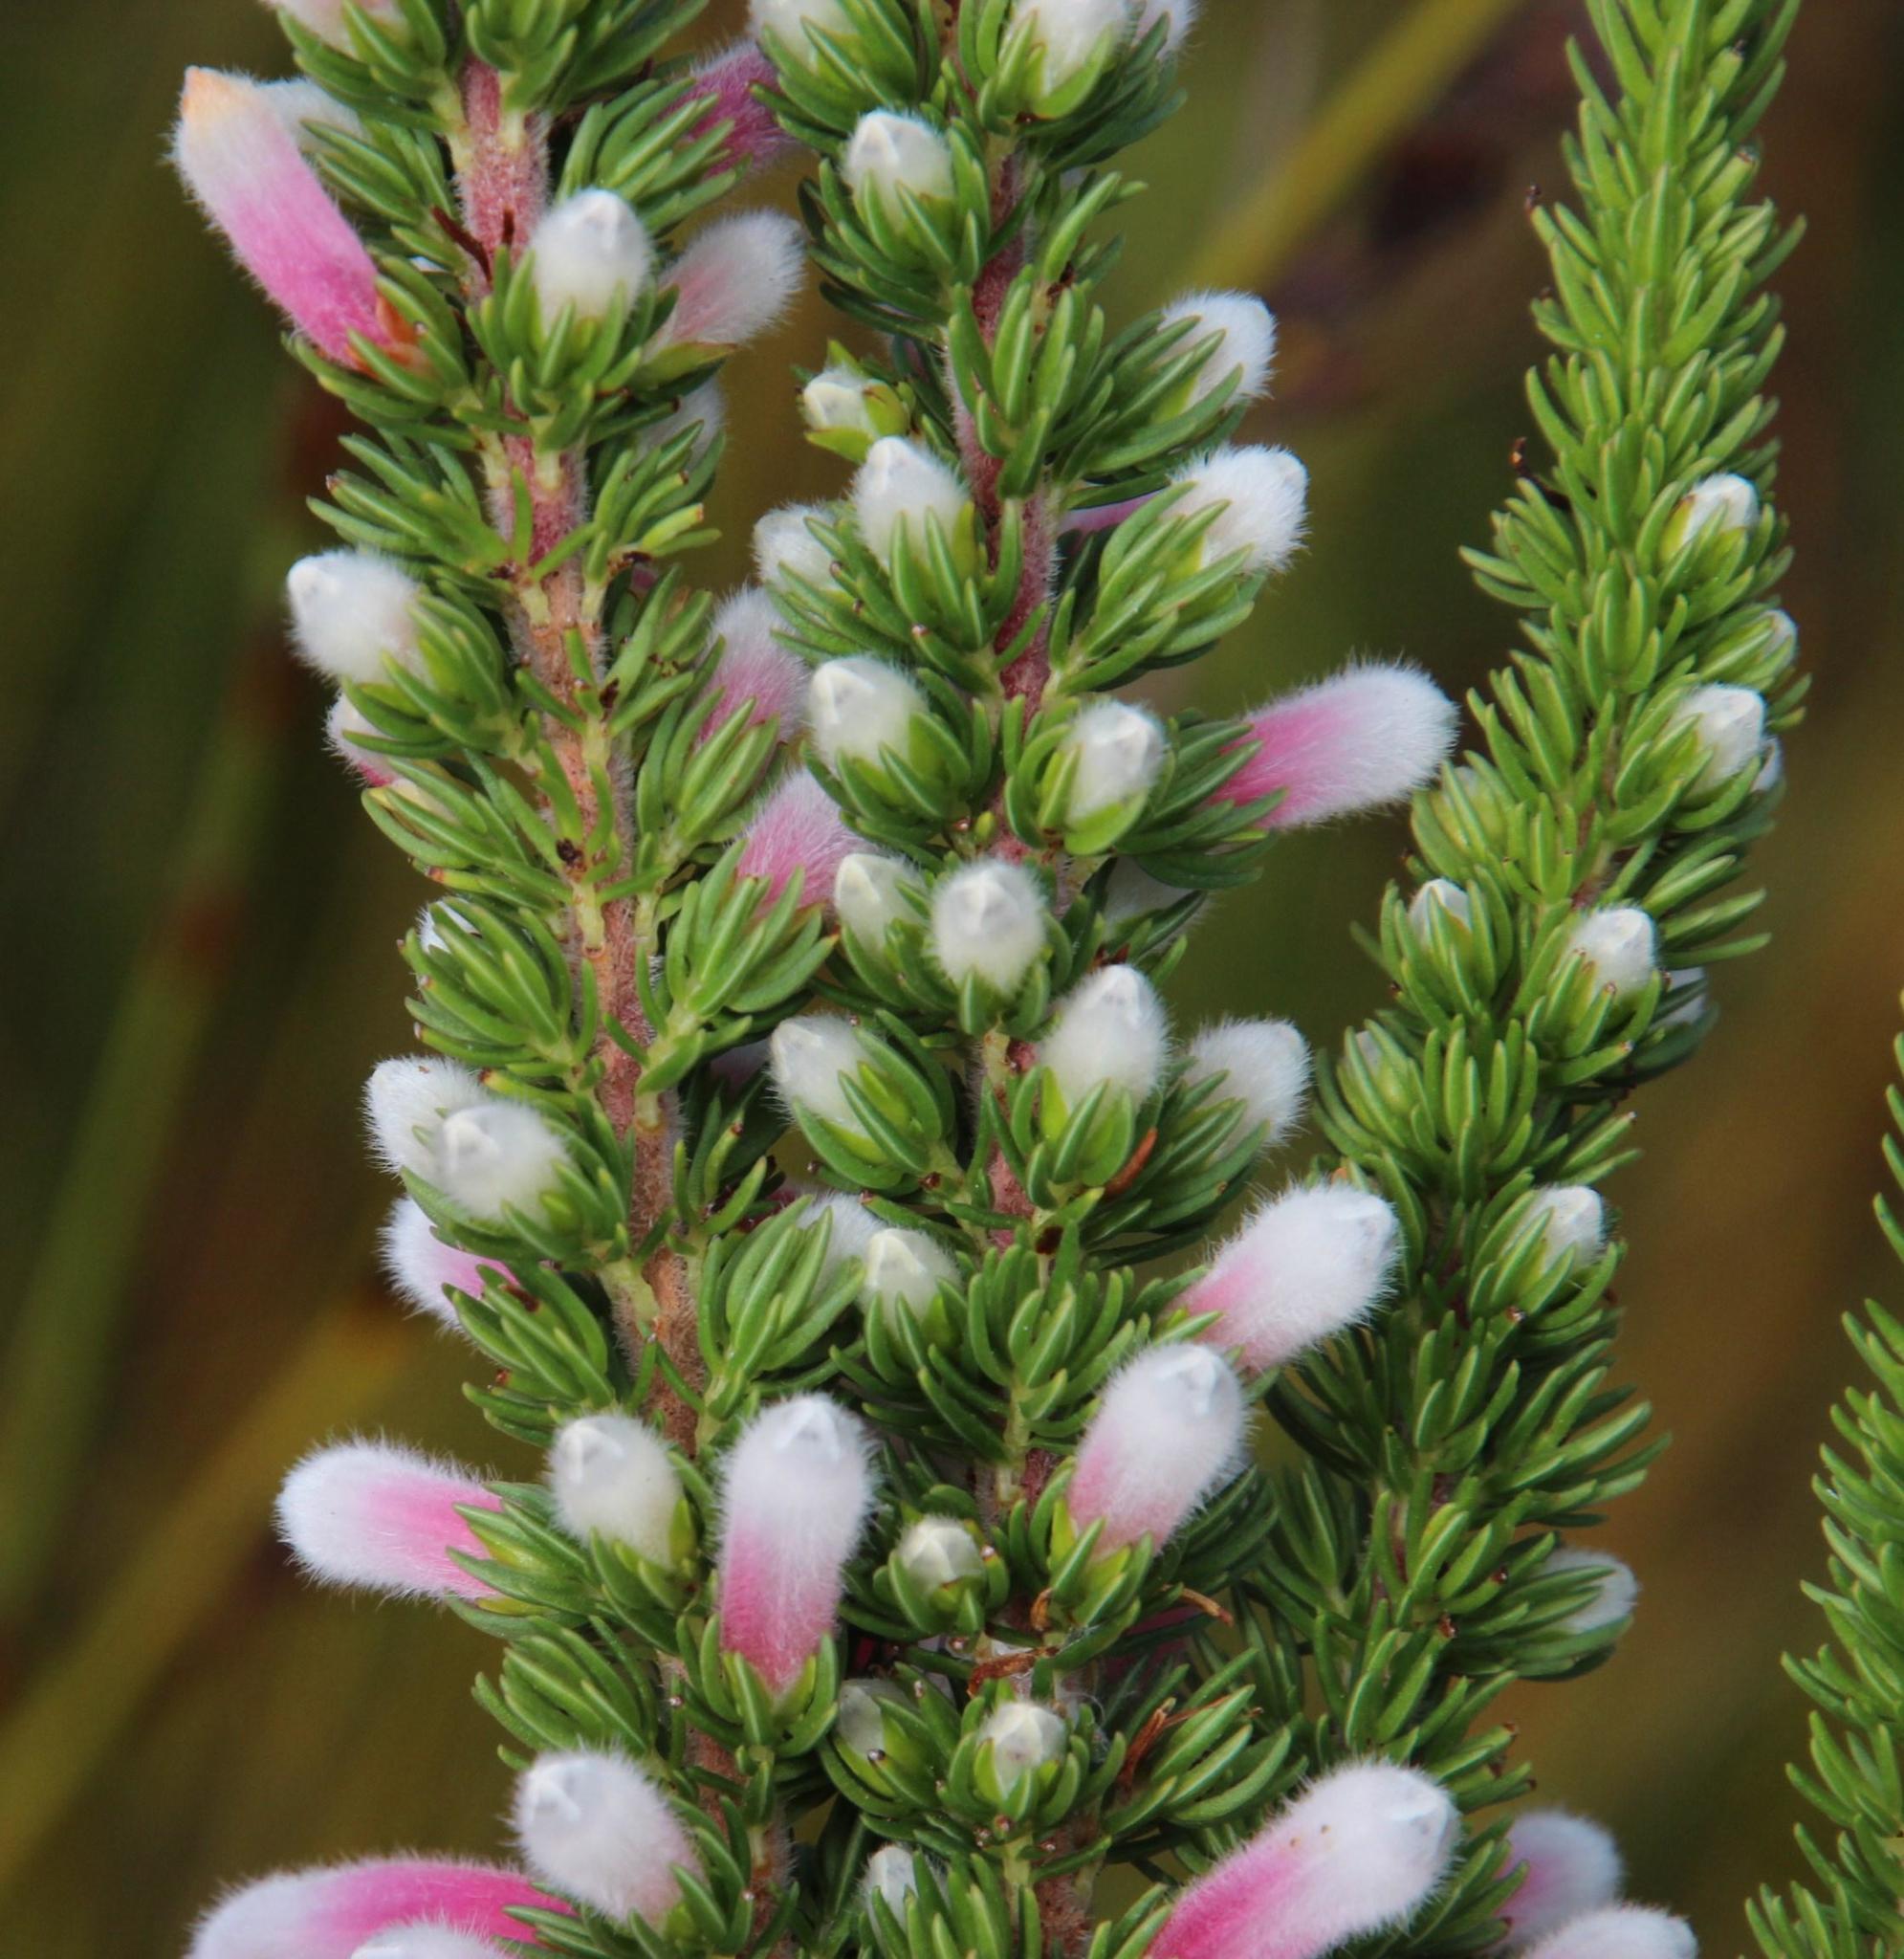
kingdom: Plantae
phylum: Tracheophyta
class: Magnoliopsida
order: Ericales
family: Ericaceae
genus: Erica
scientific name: Erica leucotrachela
